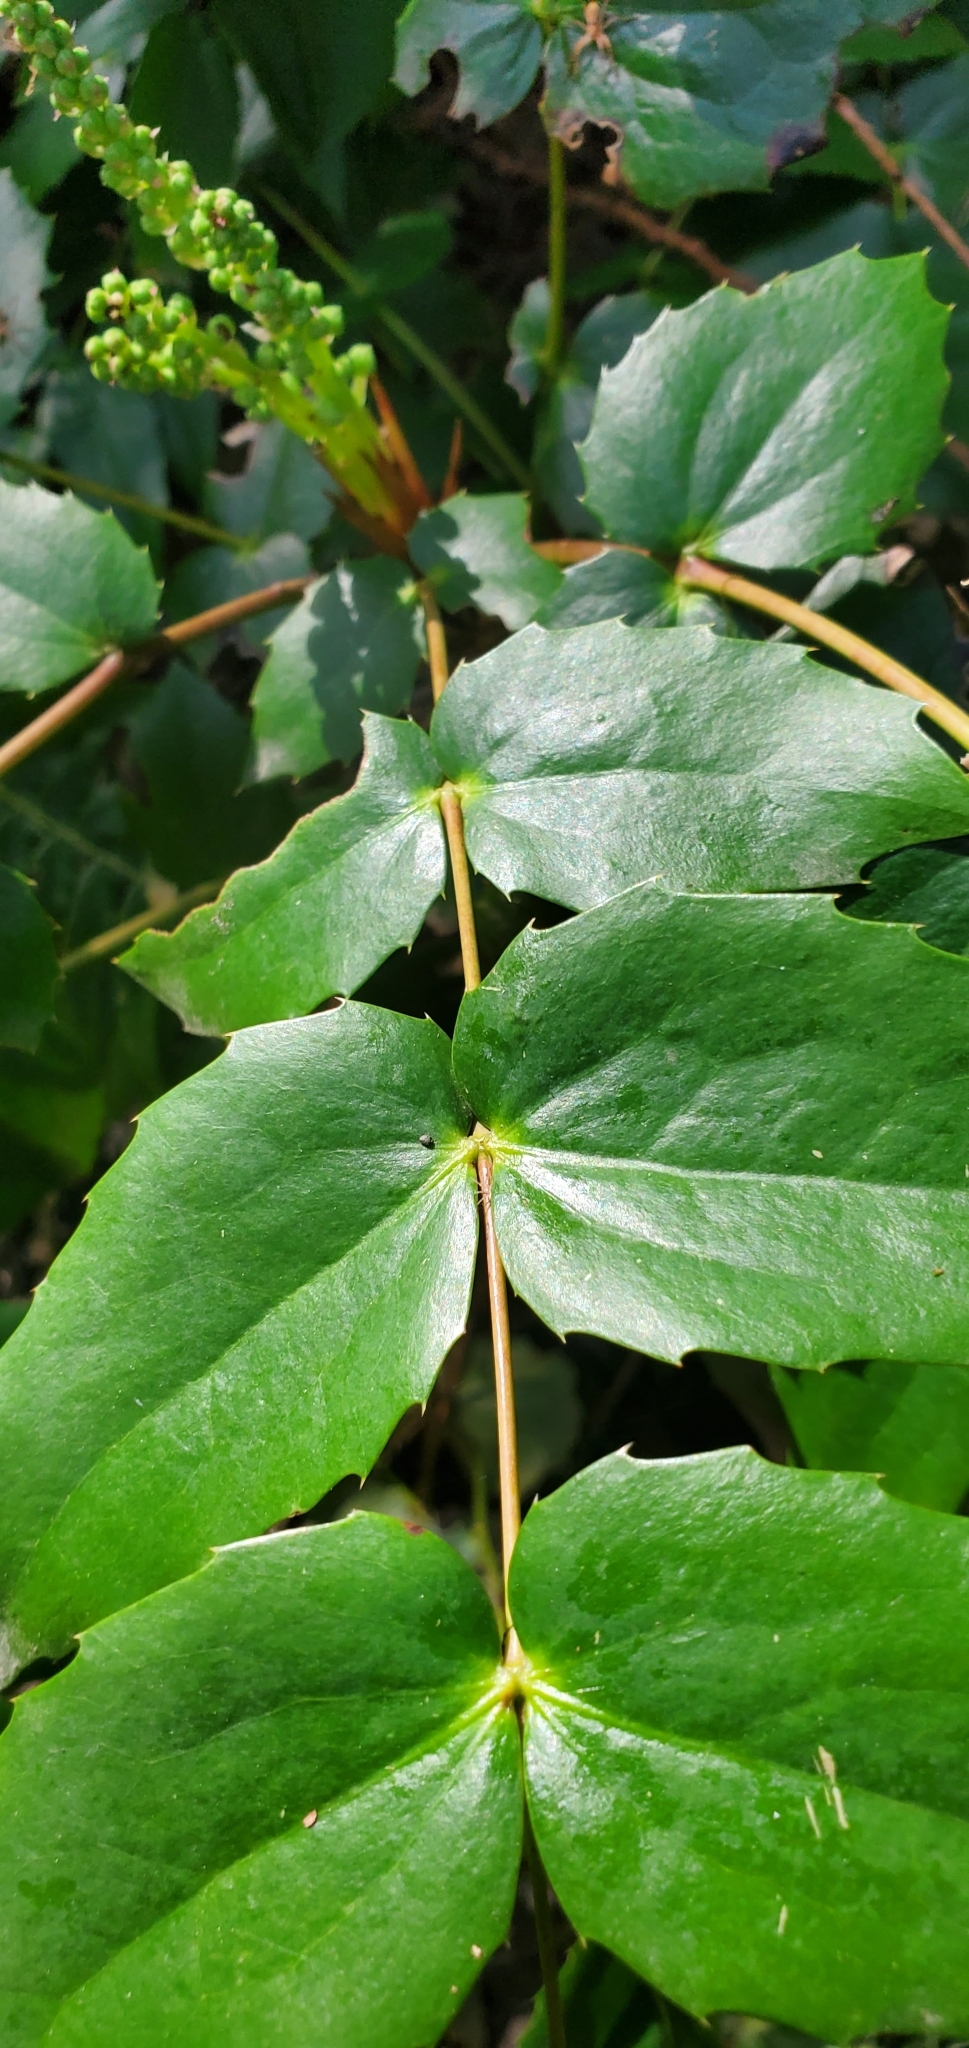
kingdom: Plantae
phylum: Tracheophyta
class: Magnoliopsida
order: Ranunculales
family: Berberidaceae
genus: Mahonia
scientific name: Mahonia nervosa
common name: Cascade oregon-grape
